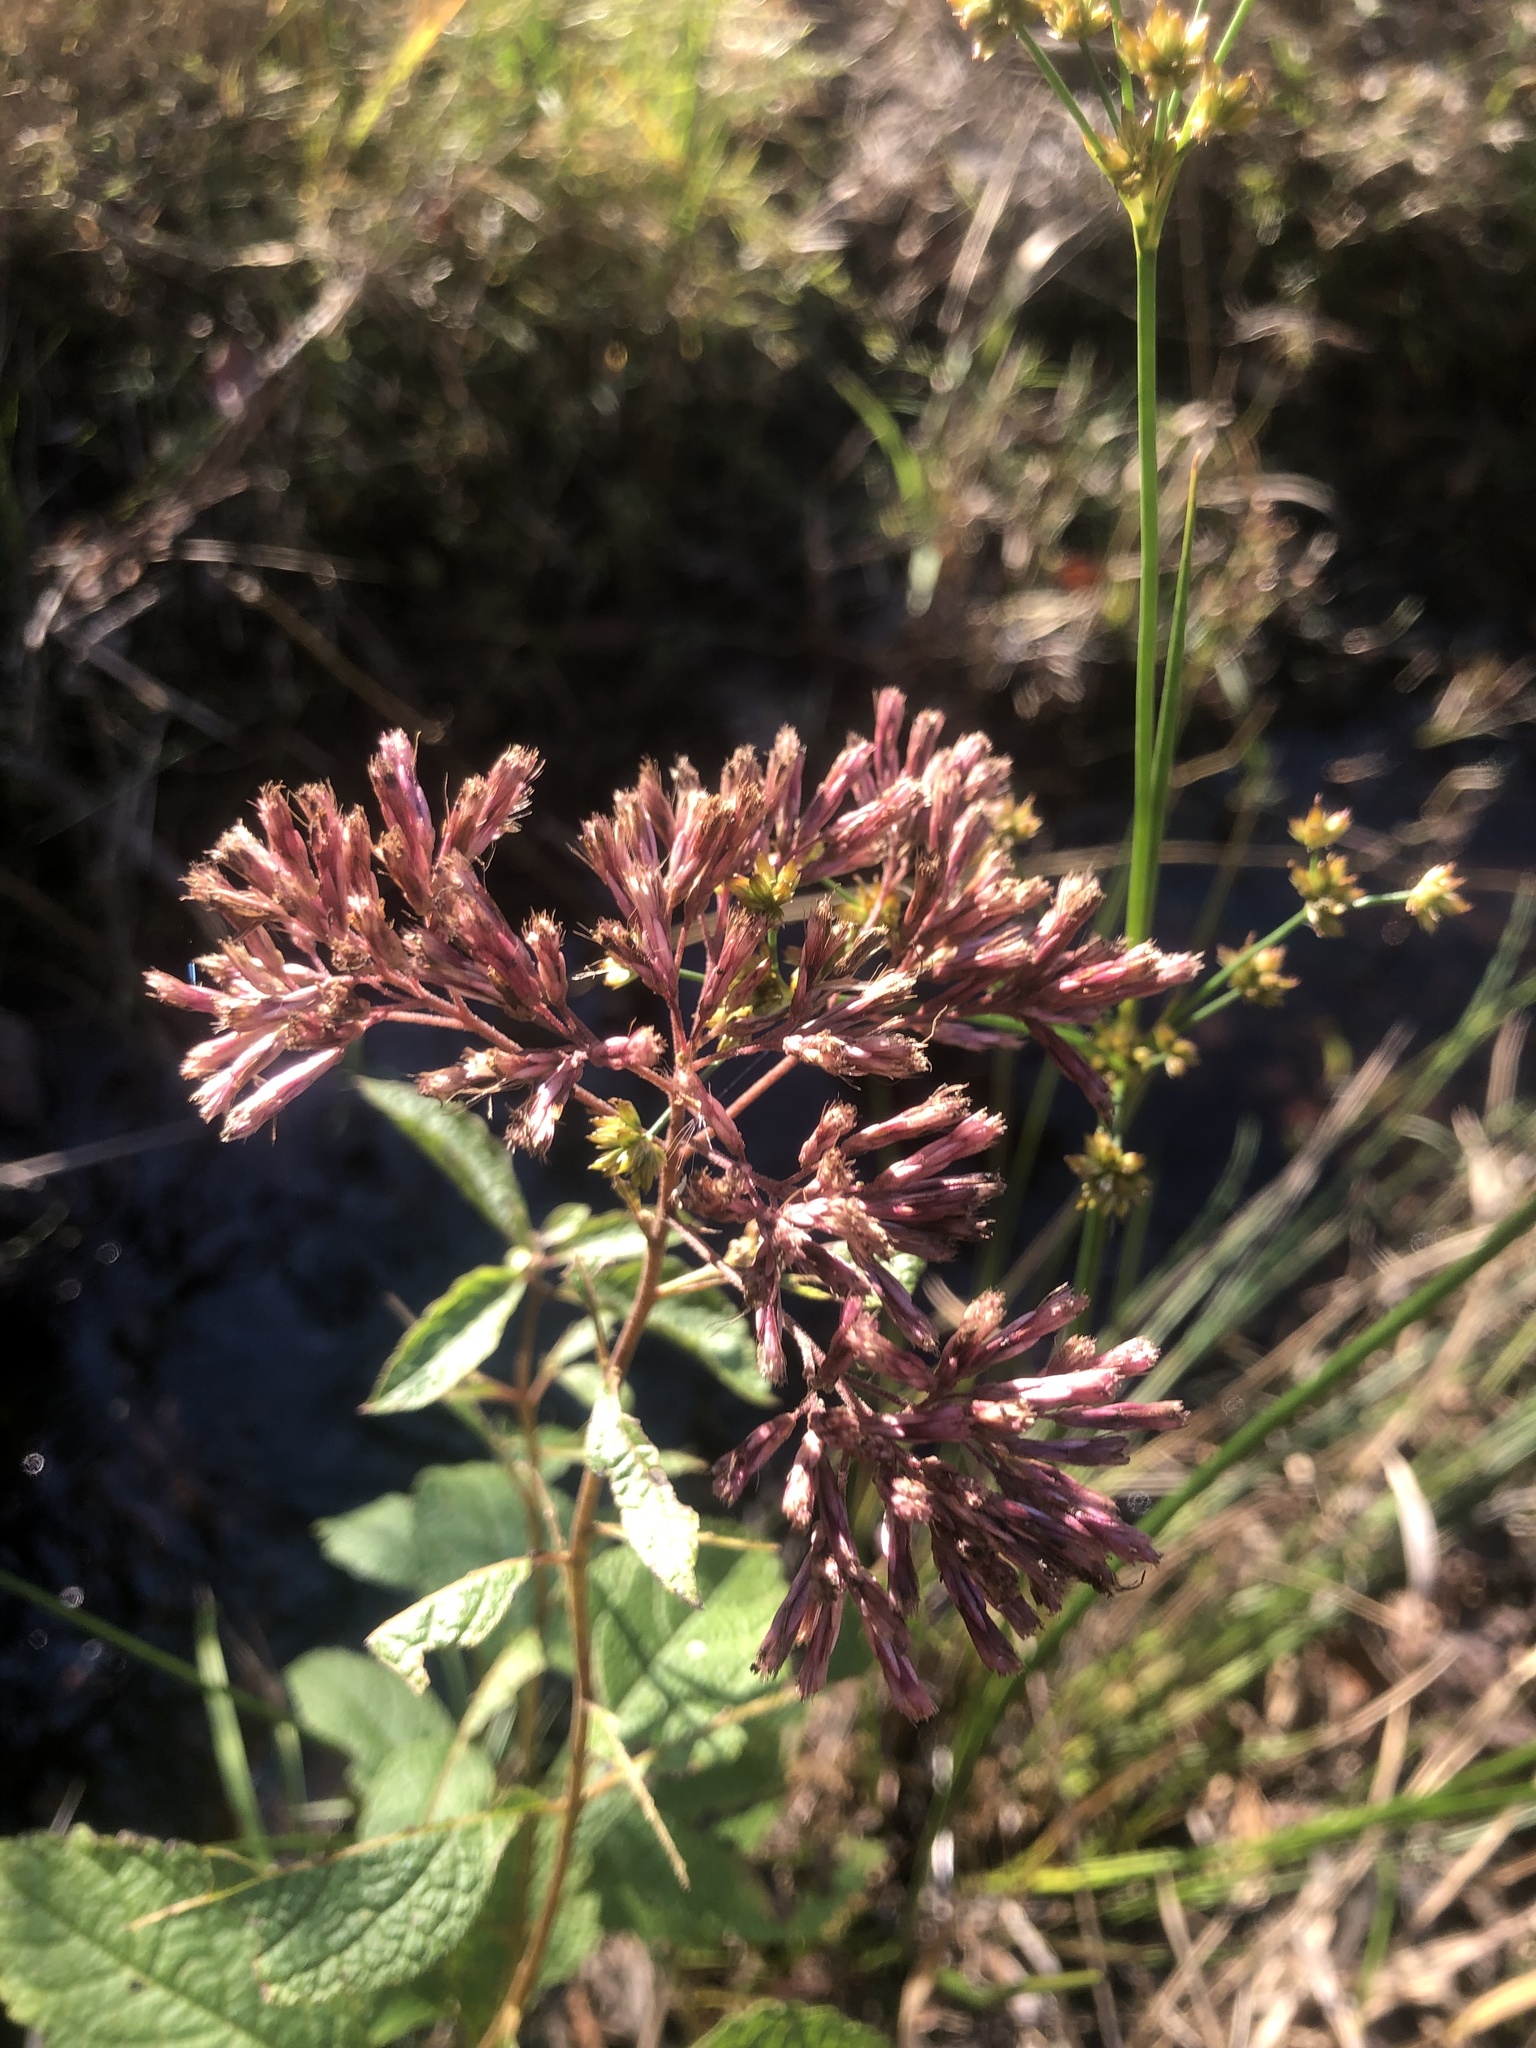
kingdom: Plantae
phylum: Tracheophyta
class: Magnoliopsida
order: Asterales
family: Asteraceae
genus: Eutrochium
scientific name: Eutrochium dubium
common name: Coastal plain joe pye weed
